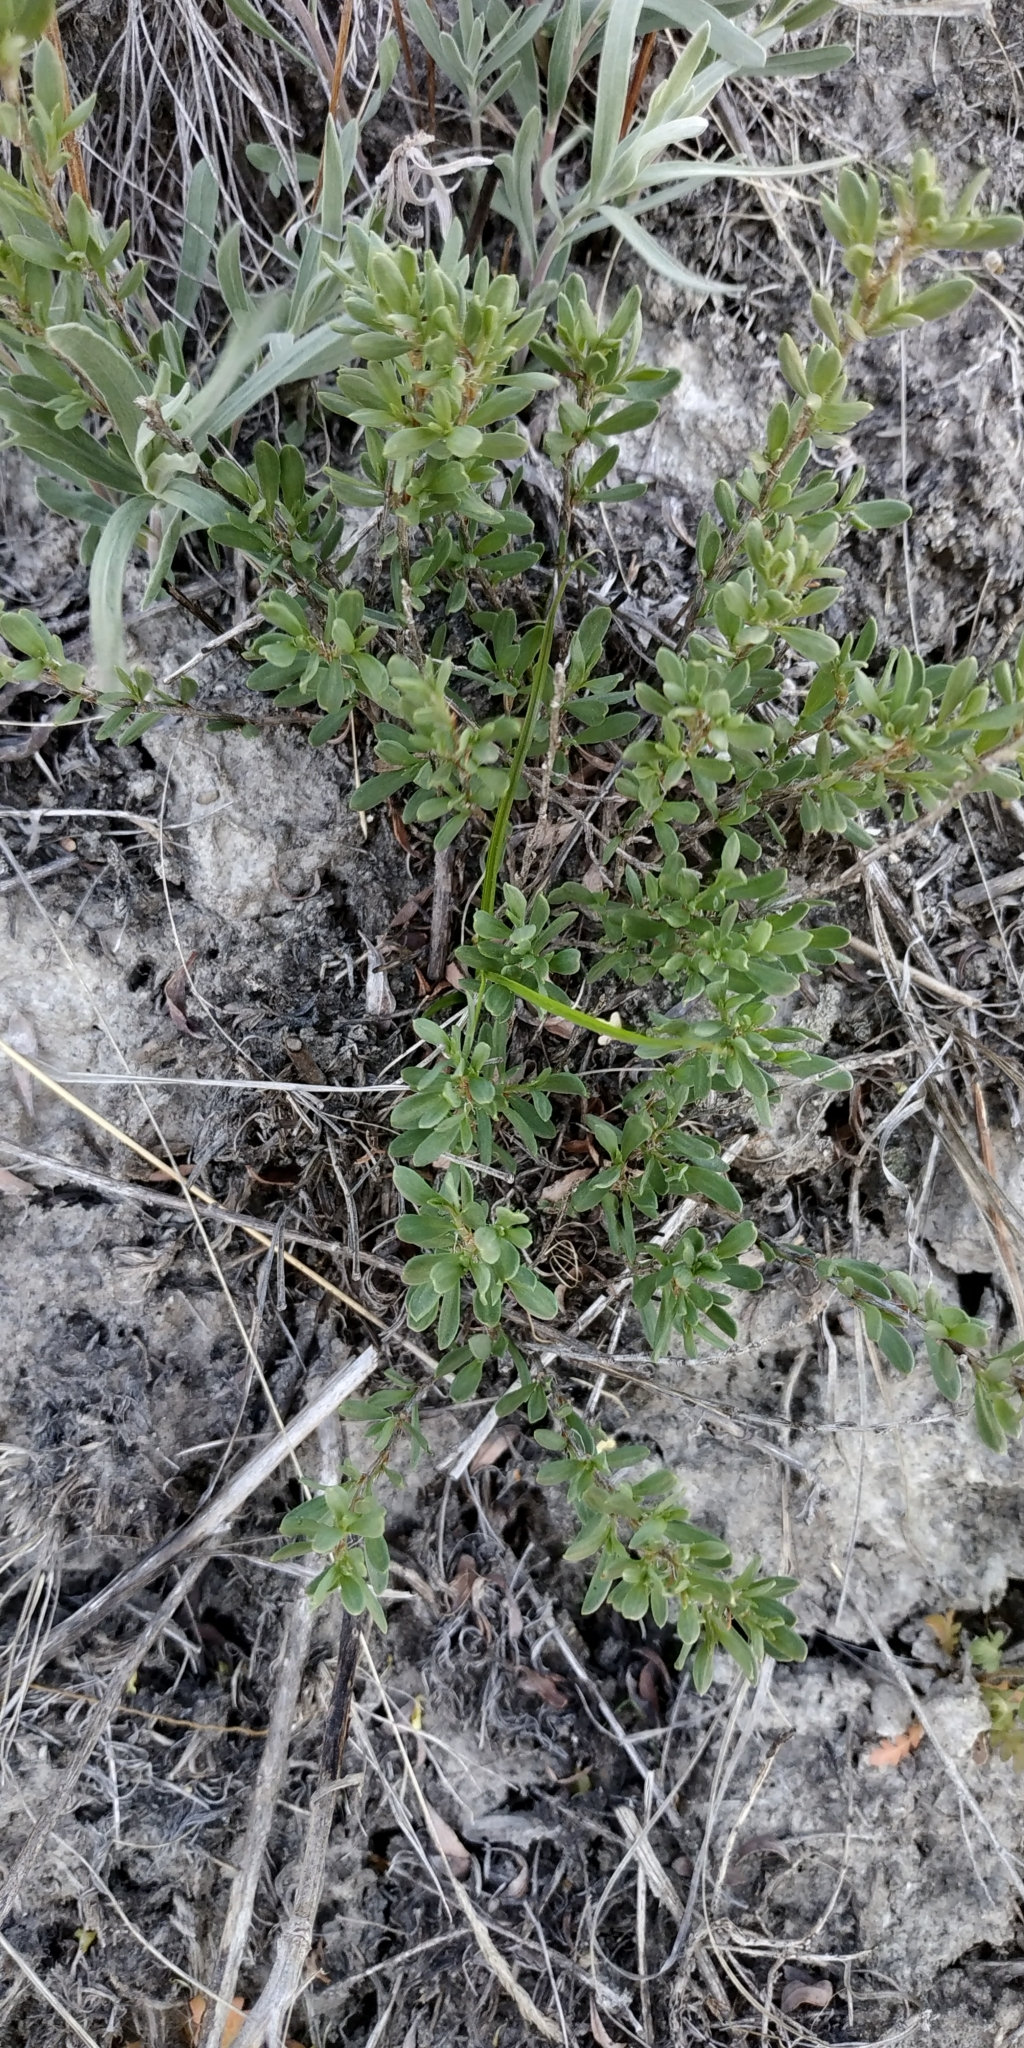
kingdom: Plantae
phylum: Tracheophyta
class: Magnoliopsida
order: Caryophyllales
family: Polygonaceae
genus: Atraphaxis
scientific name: Atraphaxis frutescens
